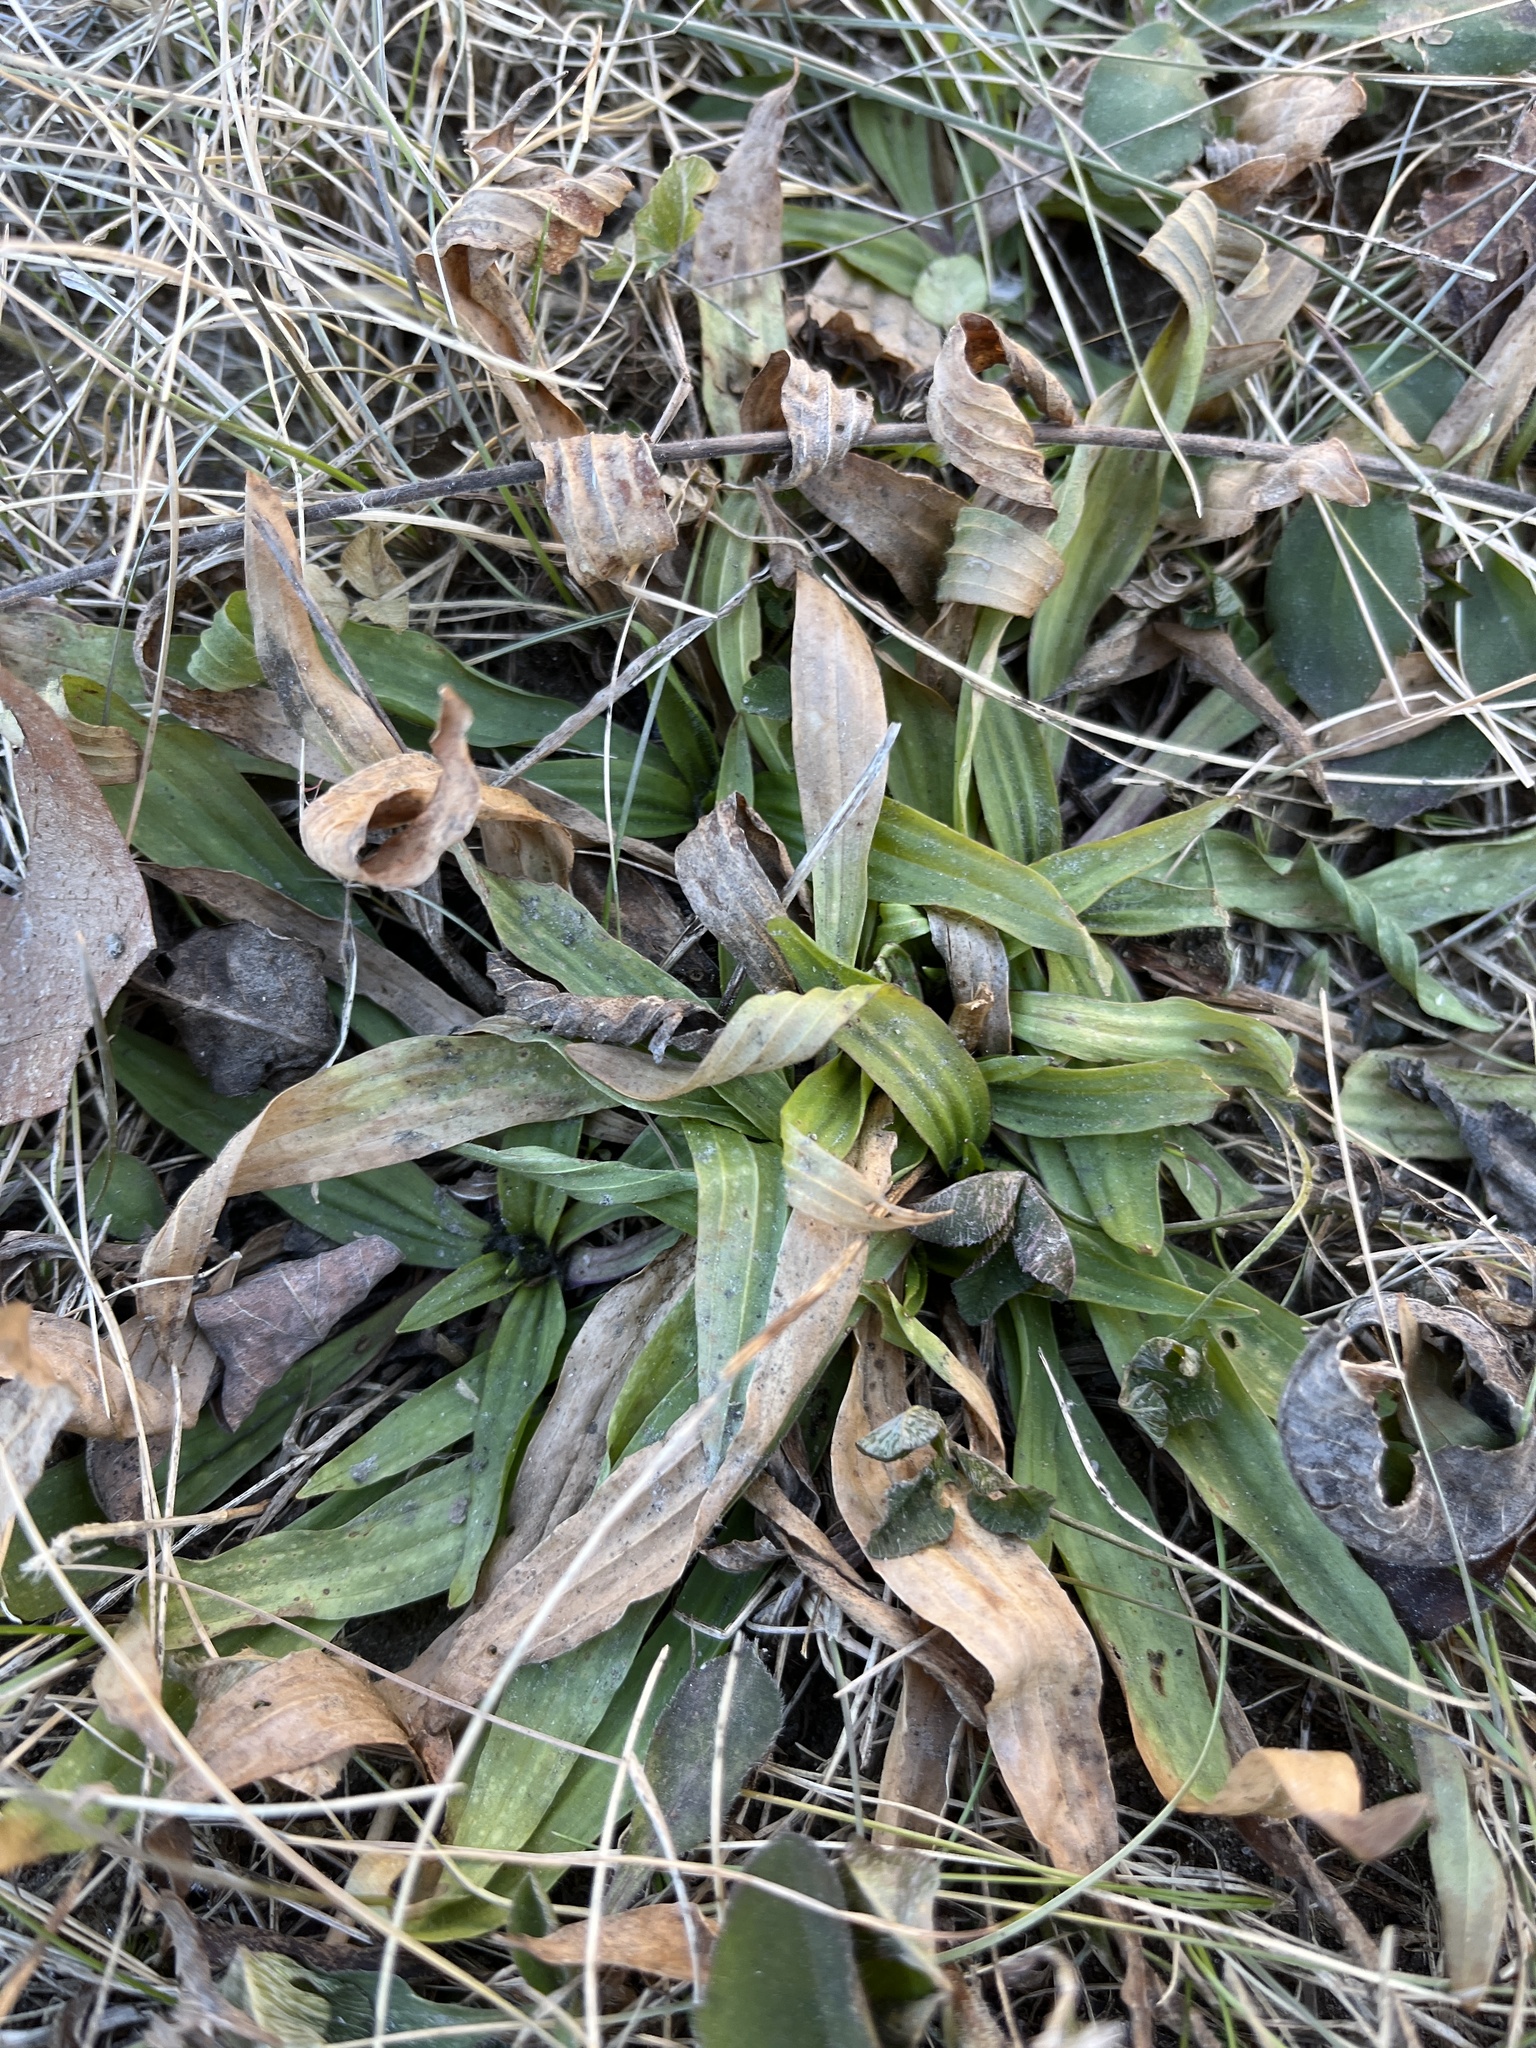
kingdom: Plantae
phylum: Tracheophyta
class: Magnoliopsida
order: Lamiales
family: Plantaginaceae
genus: Plantago
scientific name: Plantago lanceolata
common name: Ribwort plantain
